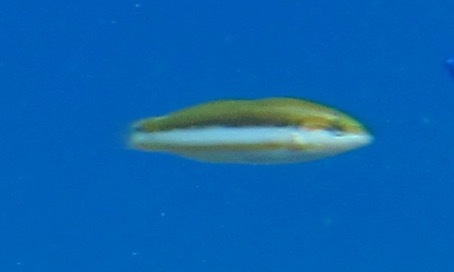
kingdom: Animalia
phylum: Chordata
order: Perciformes
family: Labridae
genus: Thalassoma
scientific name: Thalassoma lutescens
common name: Green moon wrasse
